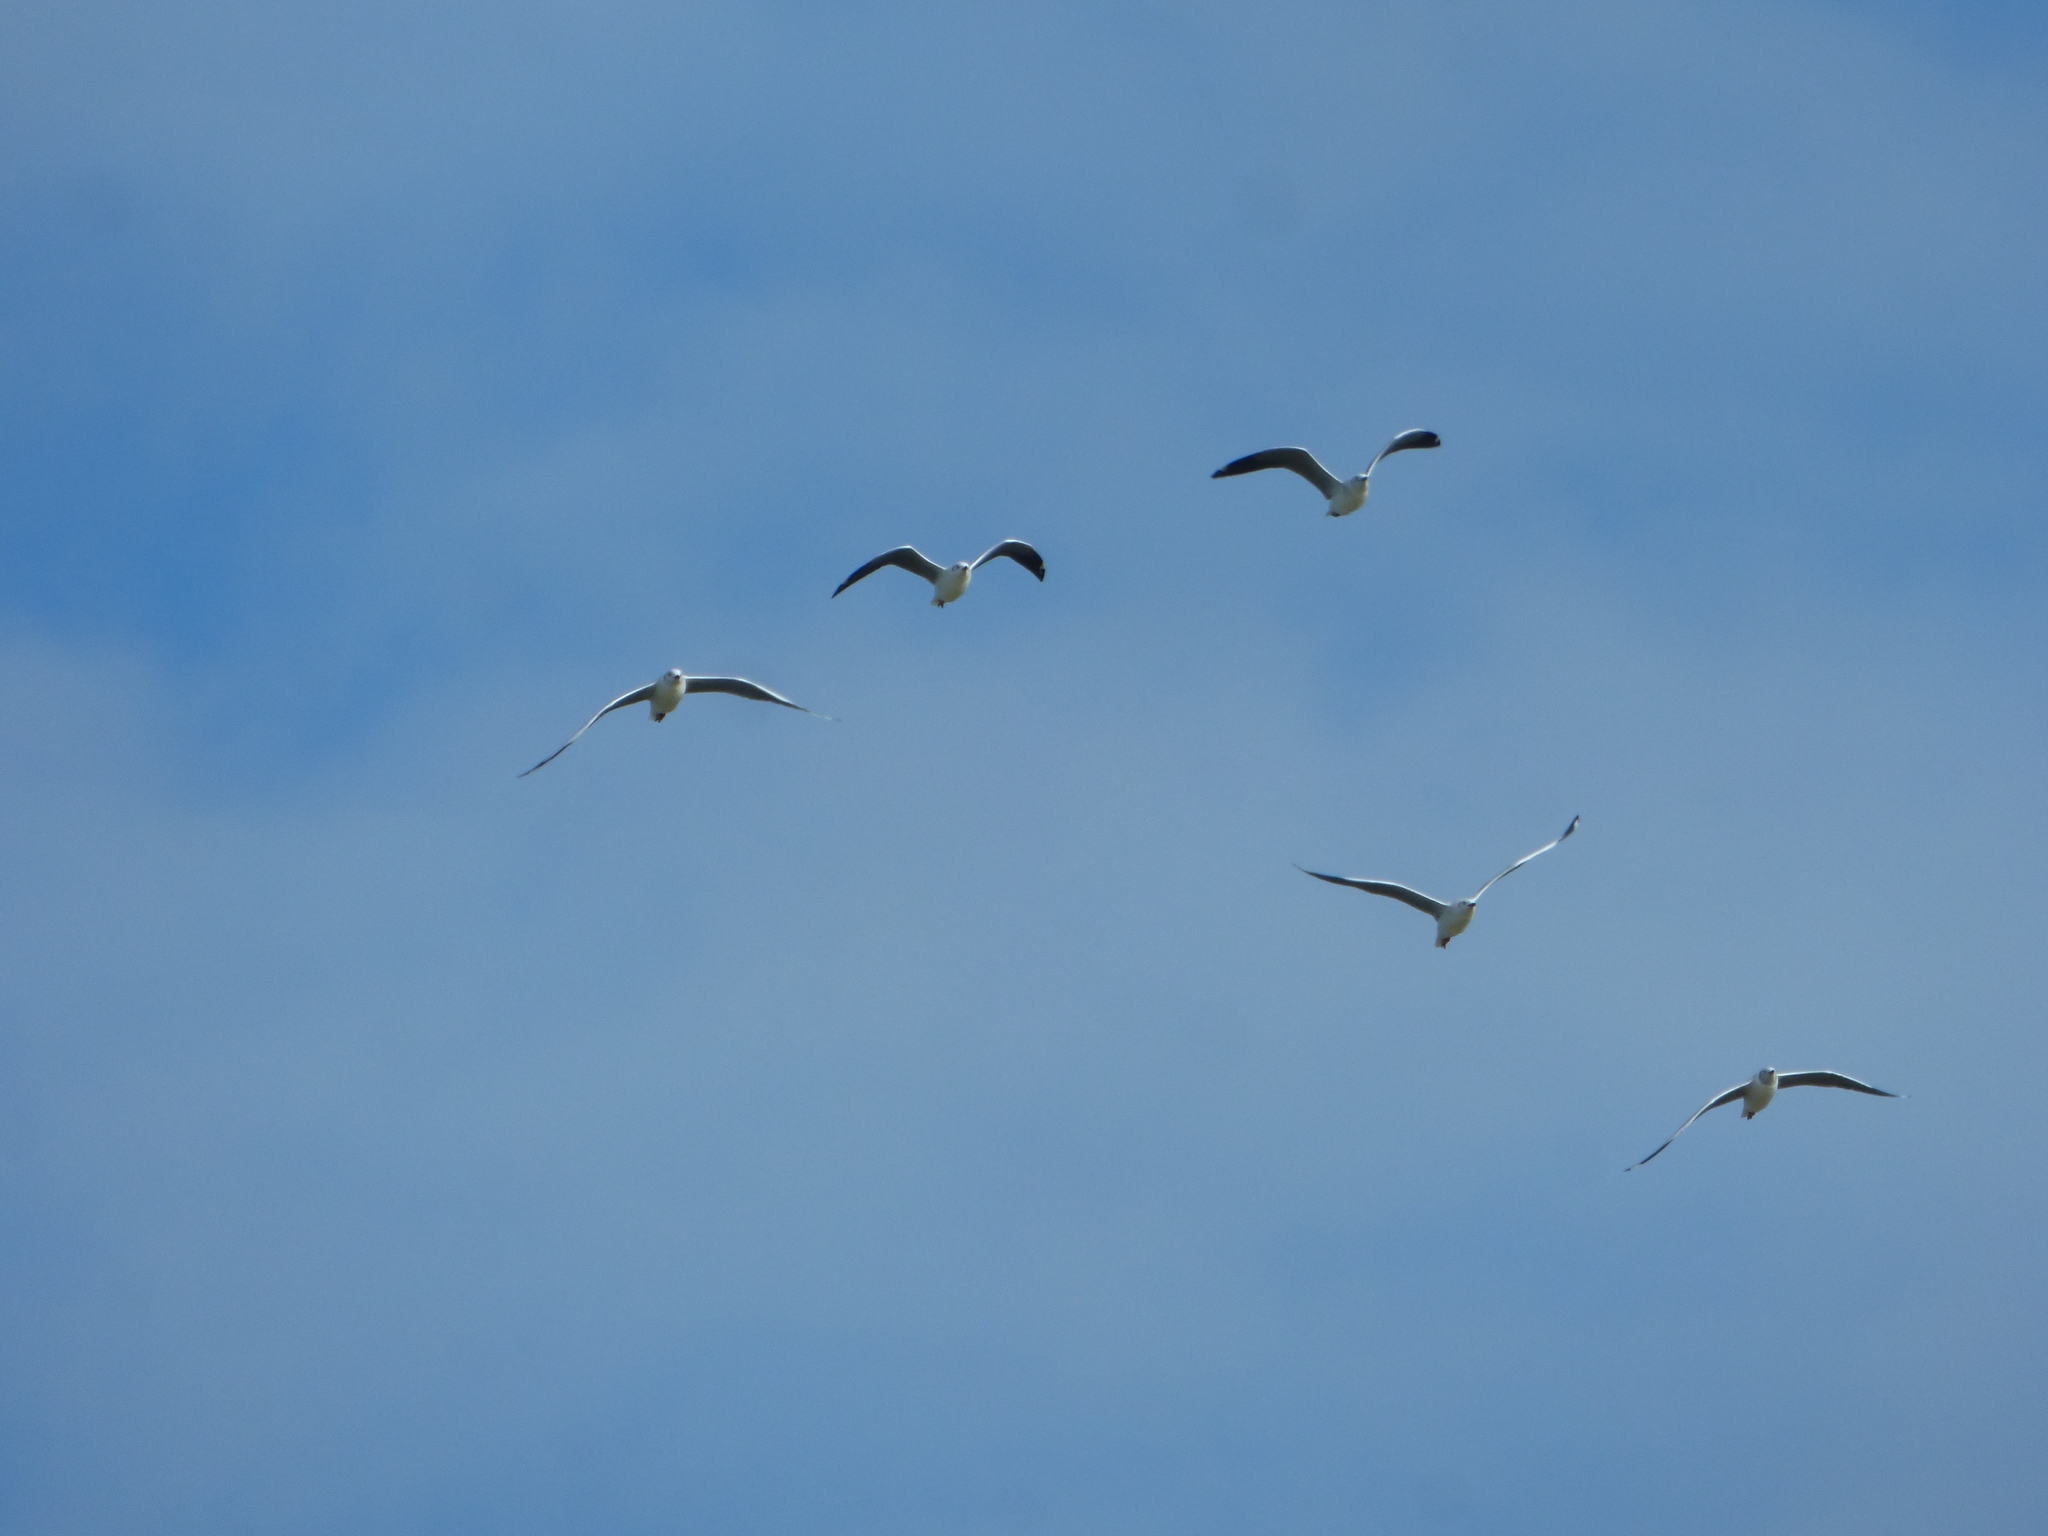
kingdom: Animalia
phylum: Chordata
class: Aves
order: Charadriiformes
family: Laridae
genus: Chroicocephalus
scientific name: Chroicocephalus cirrocephalus
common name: Grey-headed gull
